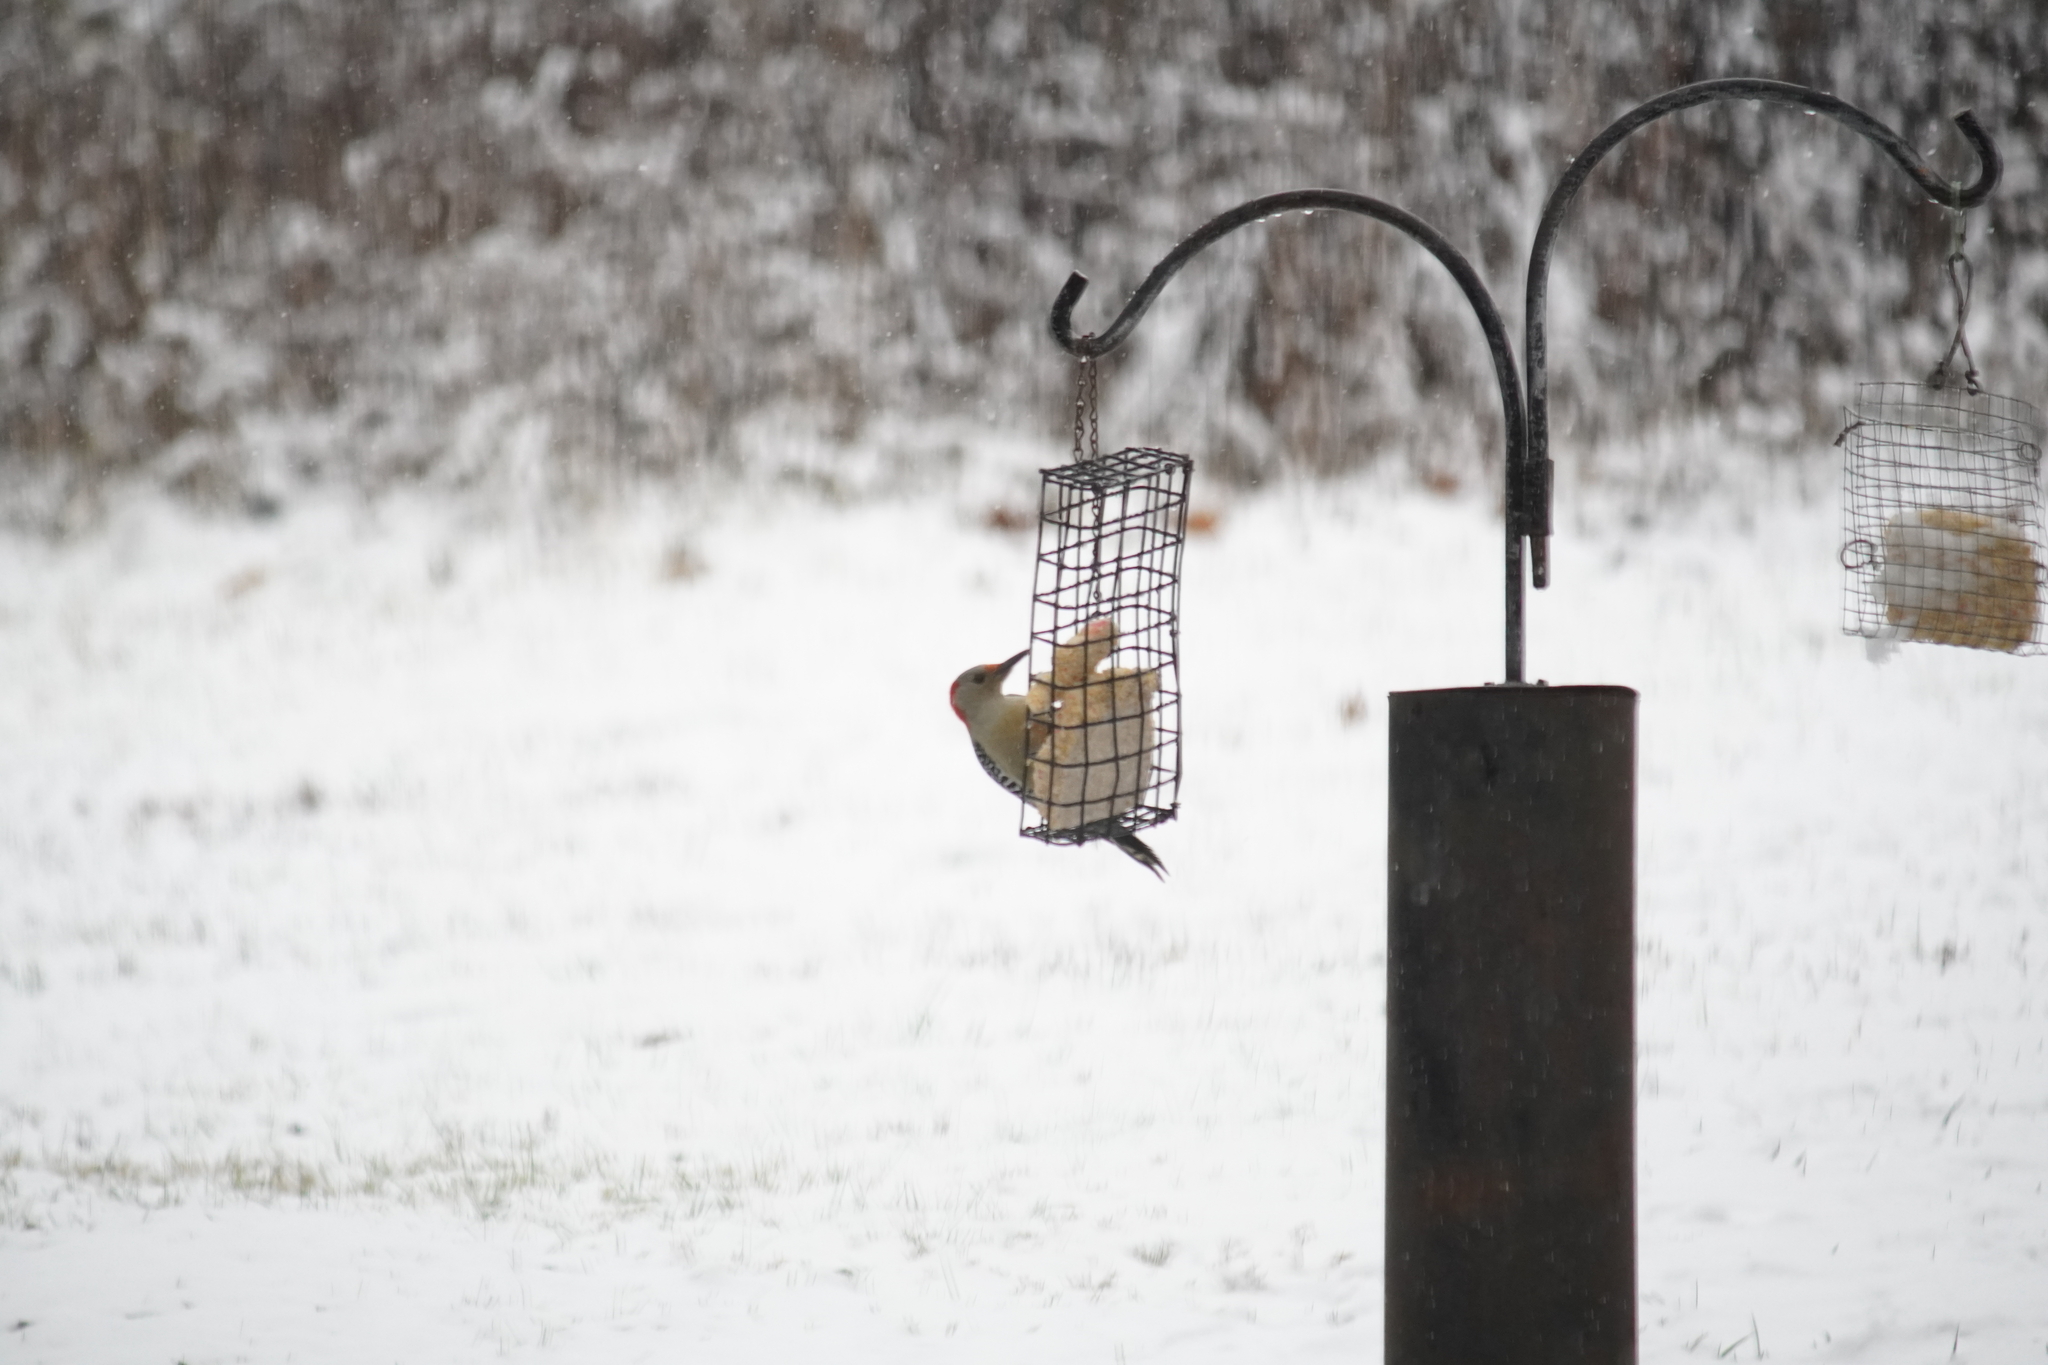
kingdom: Animalia
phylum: Chordata
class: Aves
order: Piciformes
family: Picidae
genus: Melanerpes
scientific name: Melanerpes carolinus
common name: Red-bellied woodpecker
